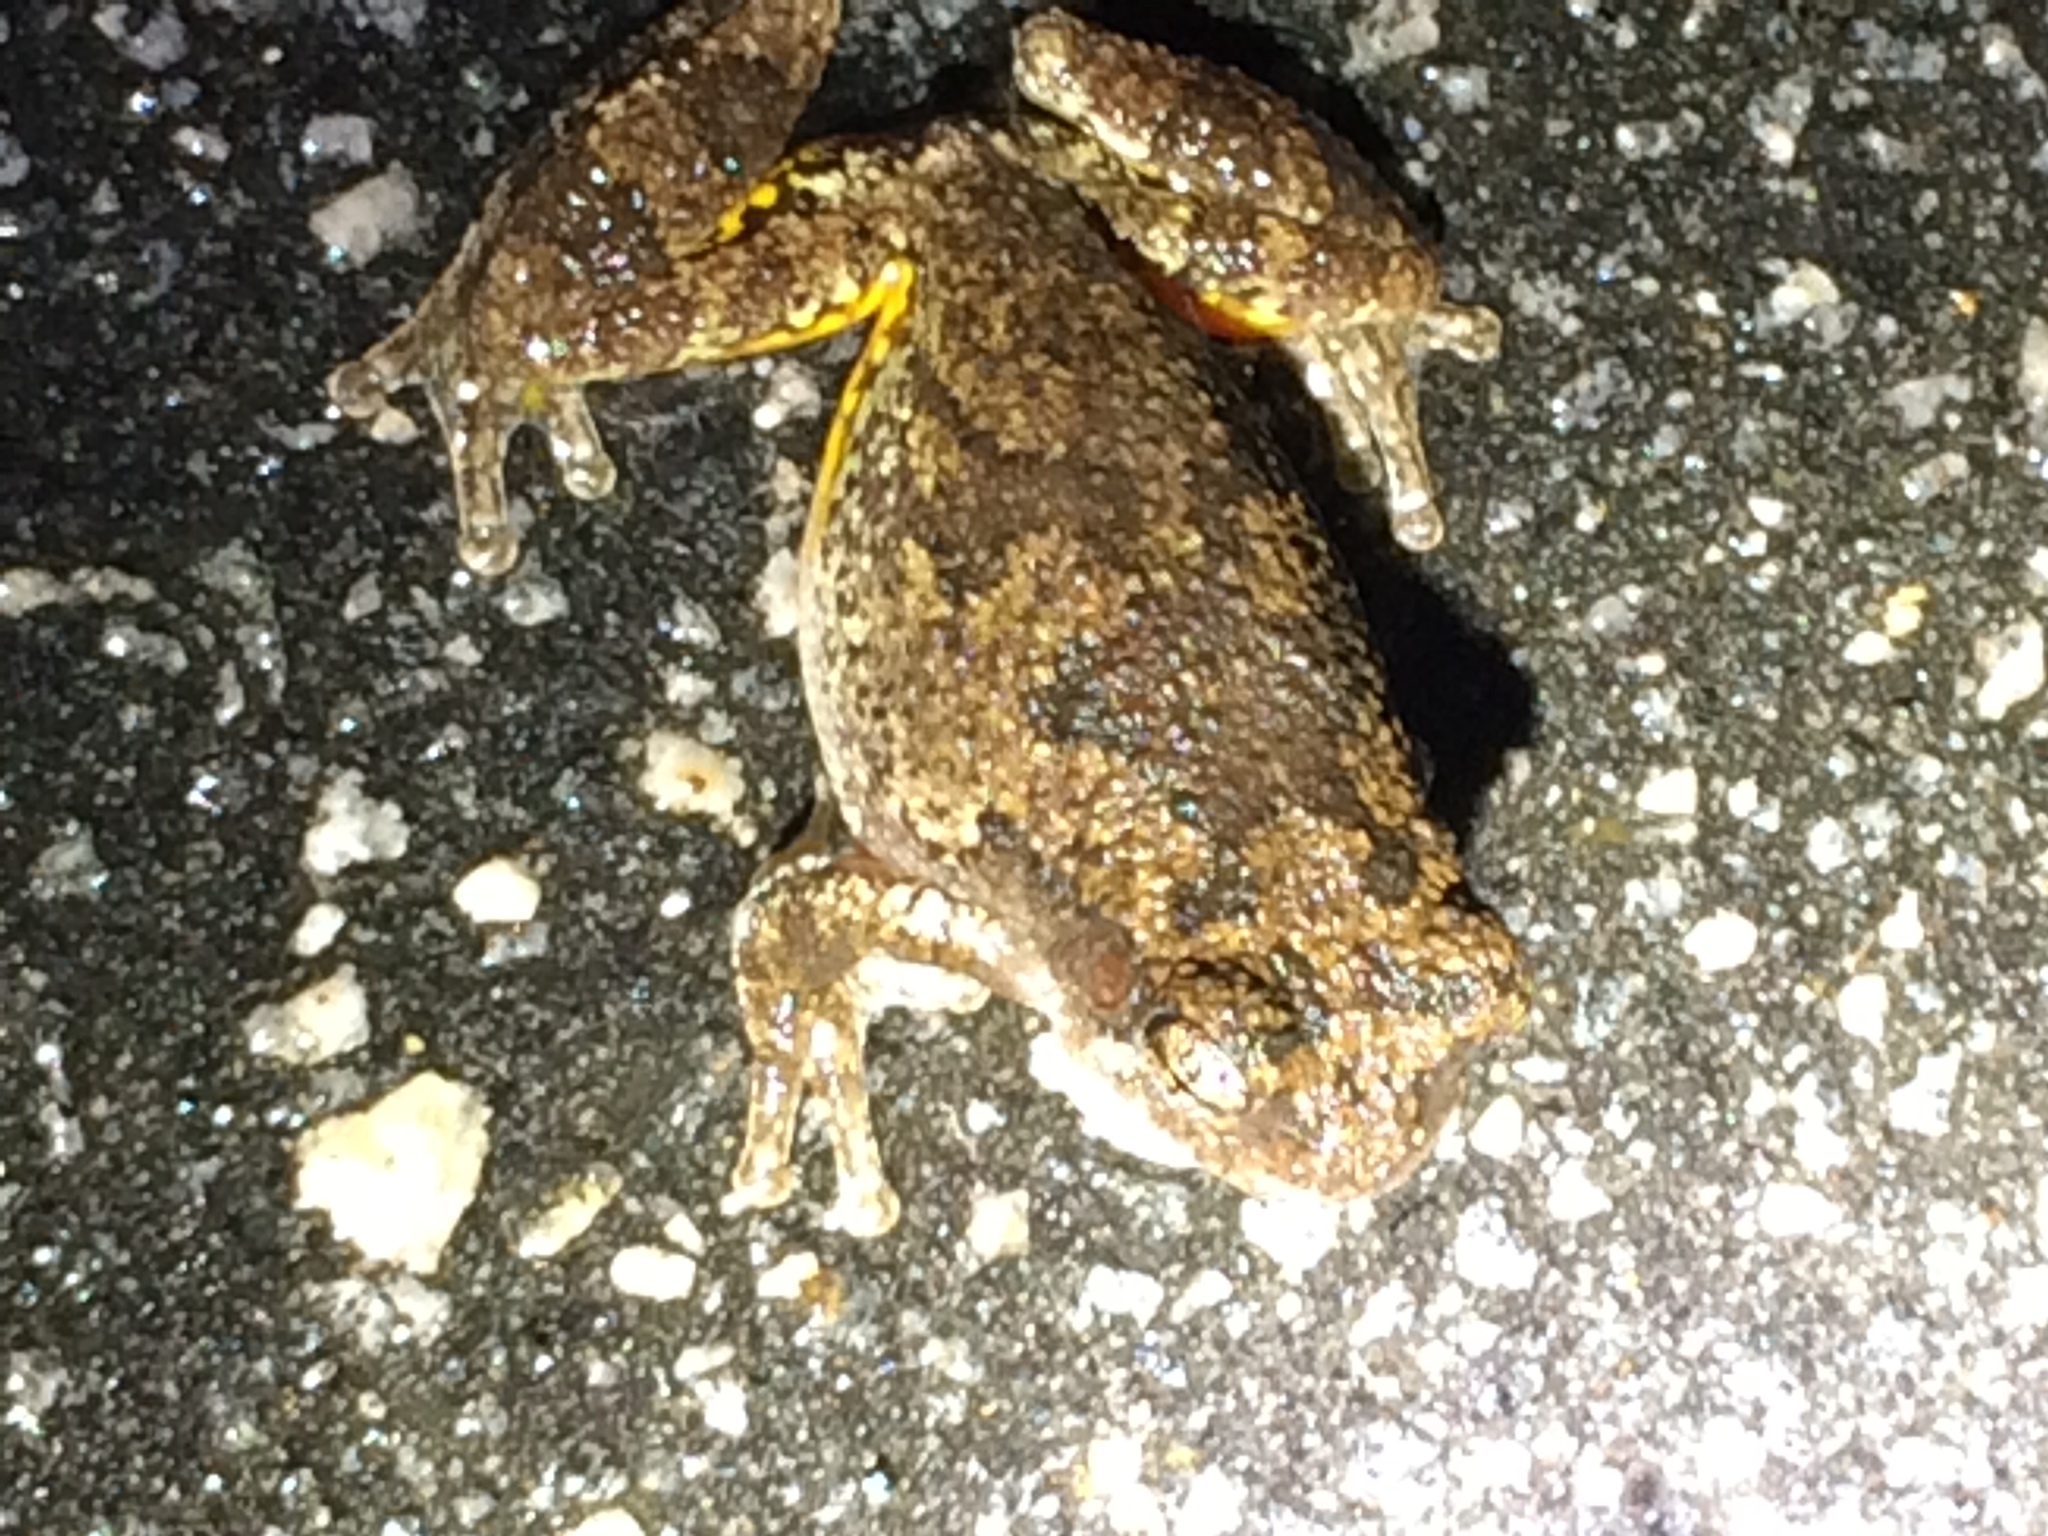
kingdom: Animalia
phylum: Chordata
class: Amphibia
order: Anura
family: Hylidae
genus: Dryophytes
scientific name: Dryophytes chrysoscelis
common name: Cope's gray treefrog
